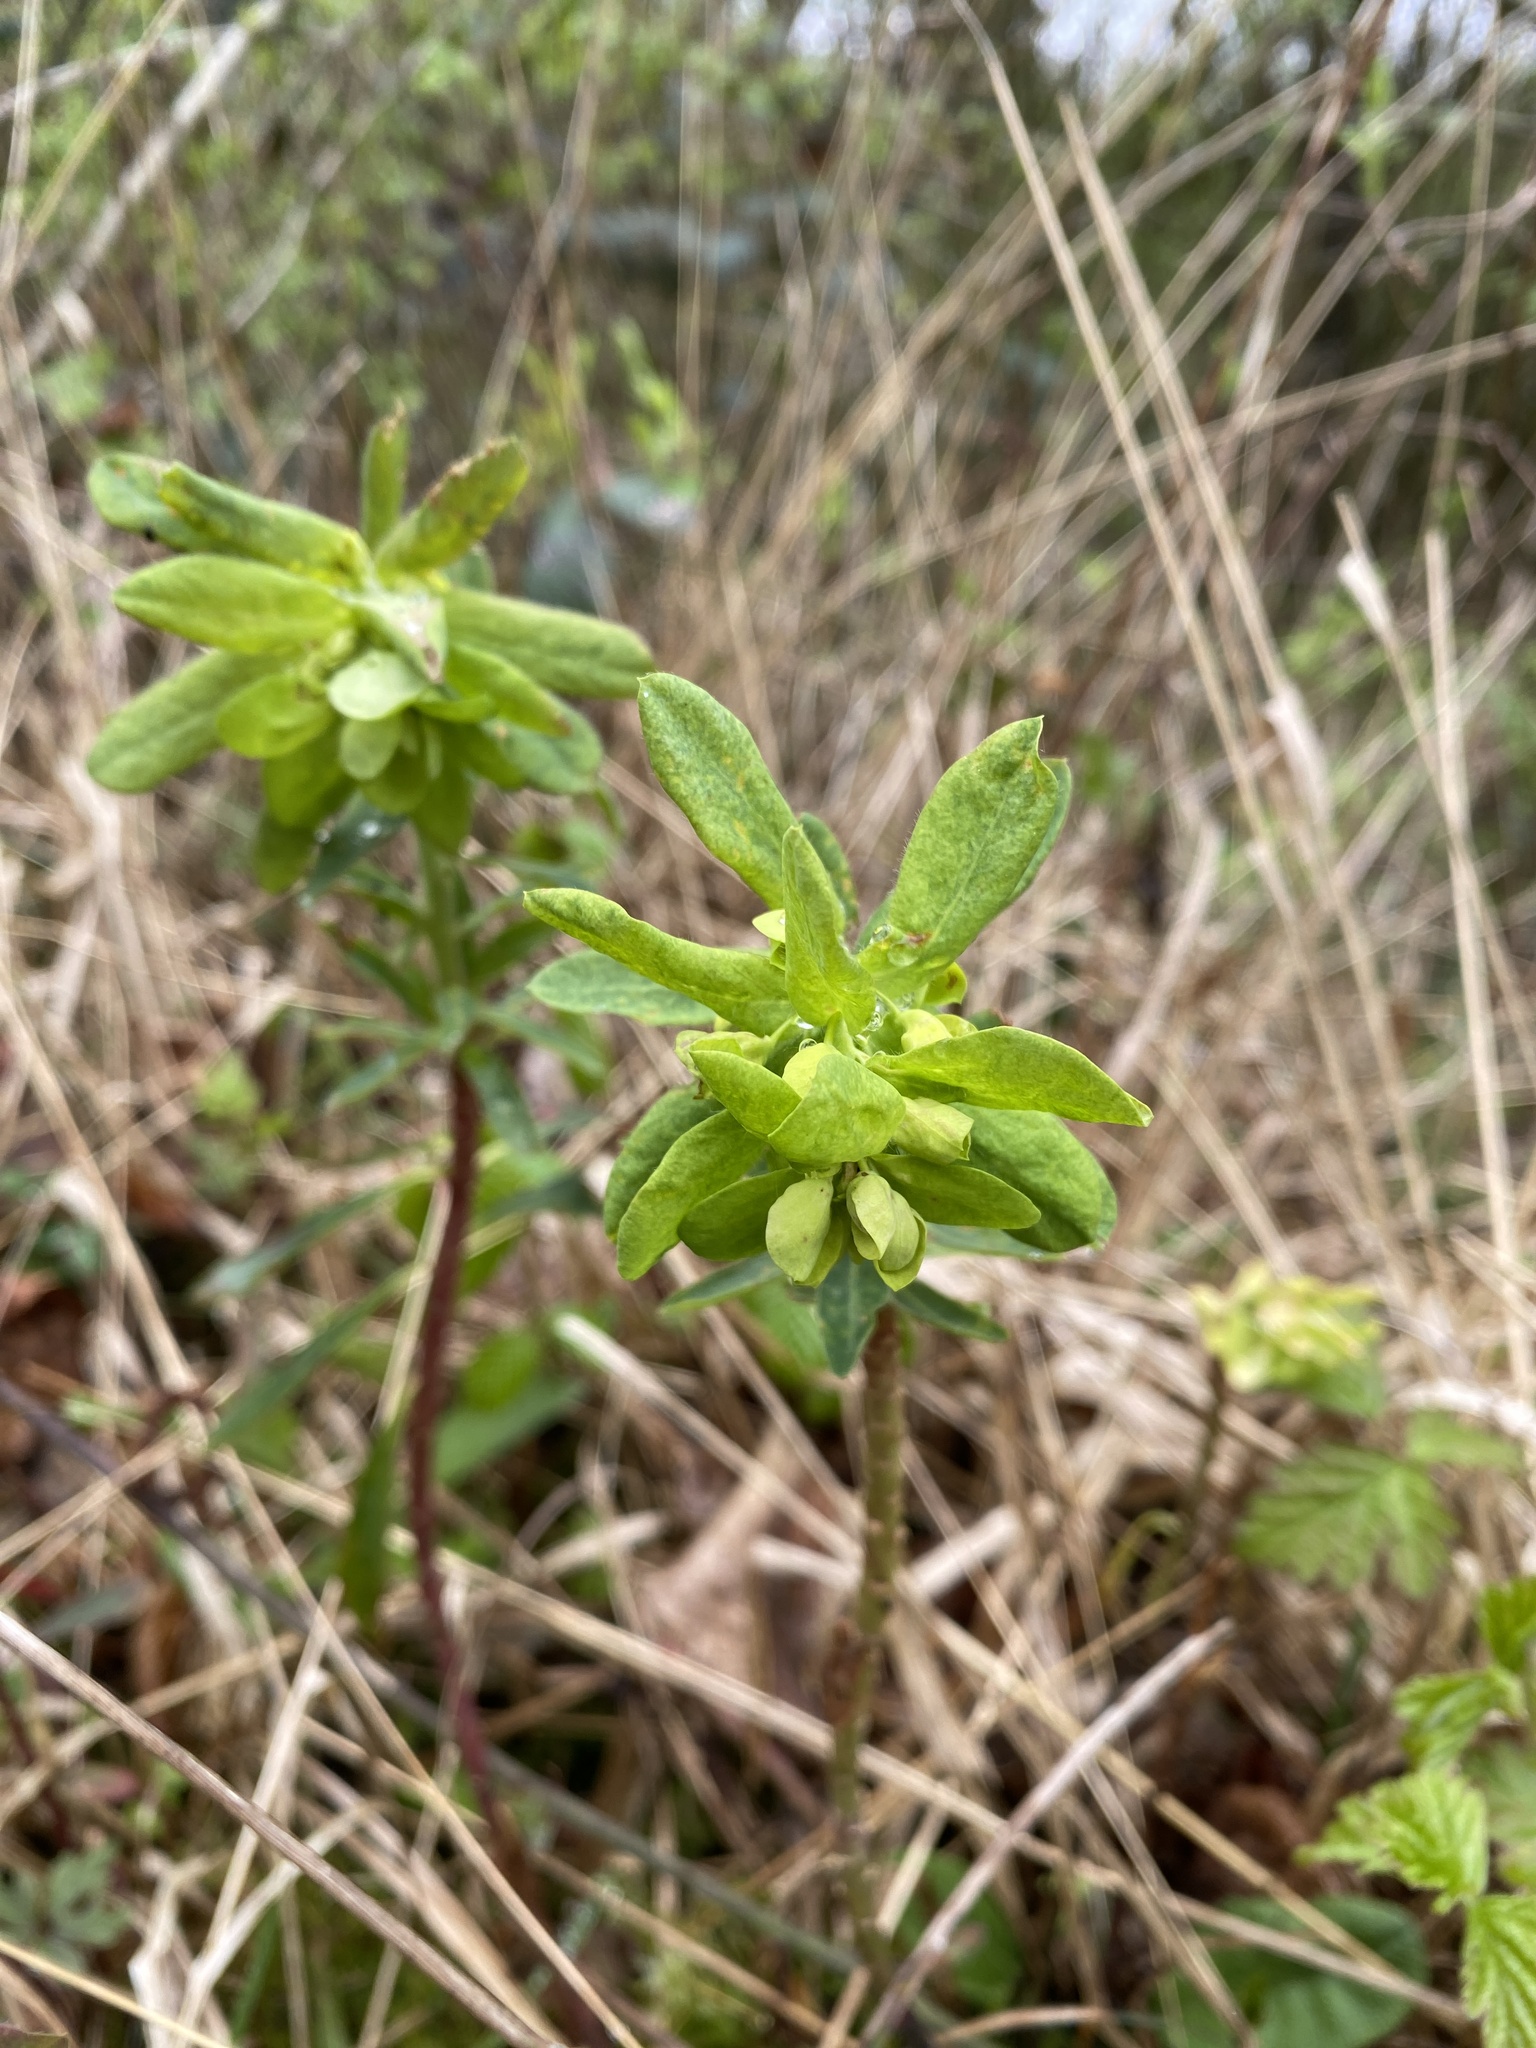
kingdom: Plantae
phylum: Tracheophyta
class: Magnoliopsida
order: Malpighiales
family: Euphorbiaceae
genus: Euphorbia
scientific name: Euphorbia amygdaloides
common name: Wood spurge
